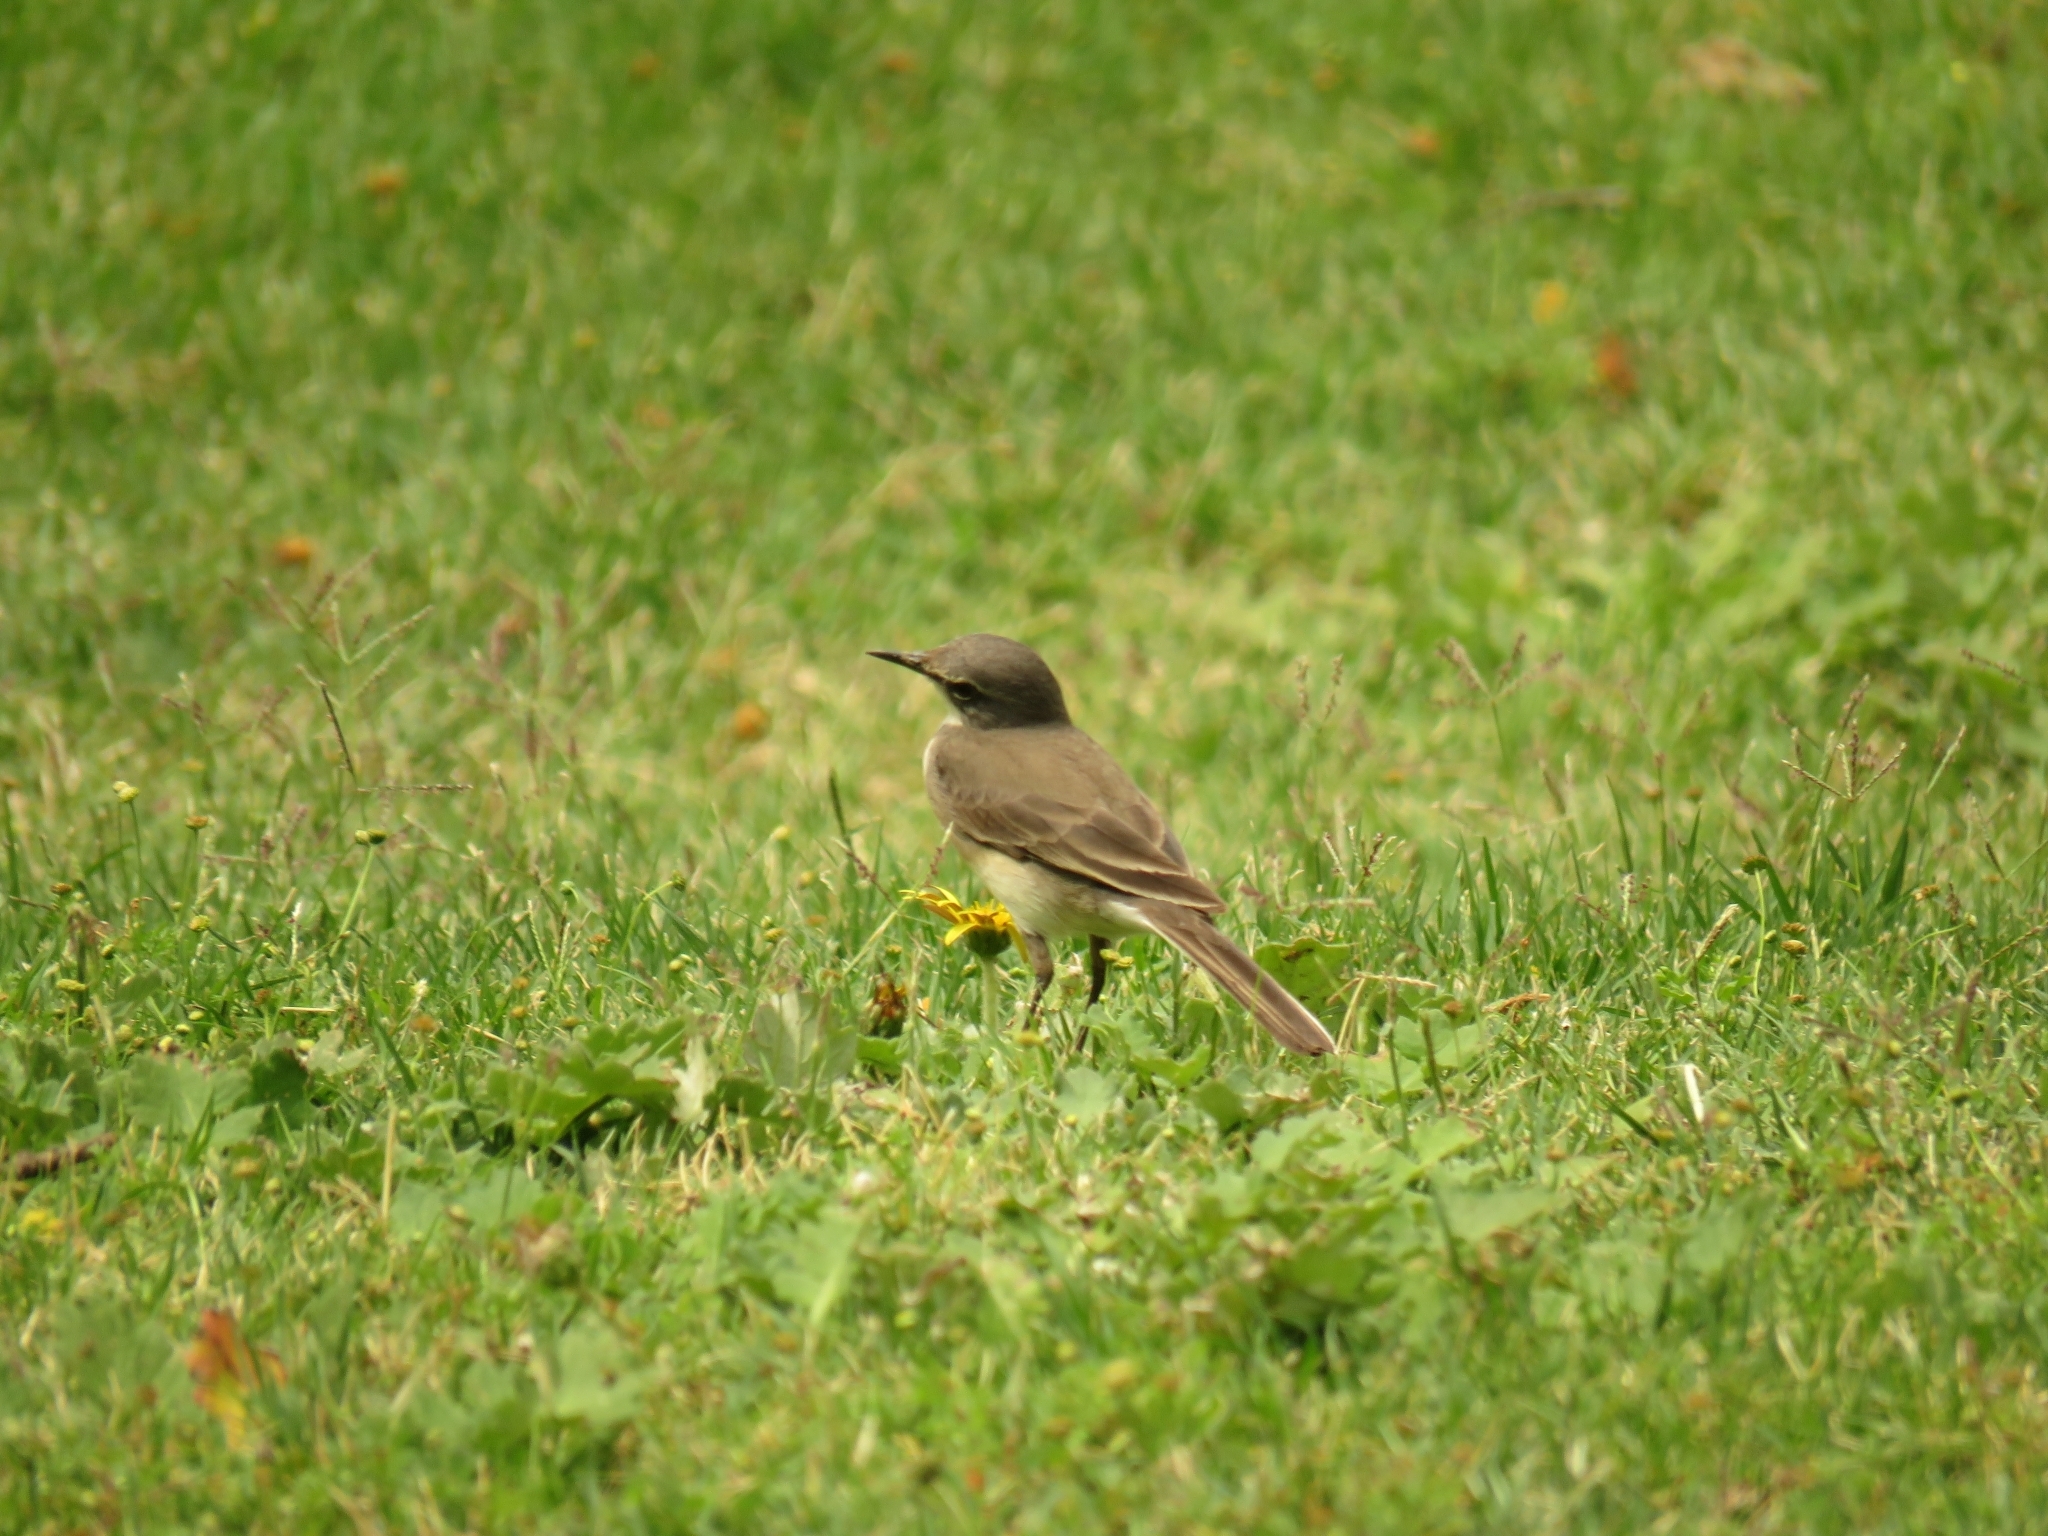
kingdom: Animalia
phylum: Chordata
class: Aves
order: Passeriformes
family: Motacillidae
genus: Motacilla
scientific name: Motacilla capensis
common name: Cape wagtail
